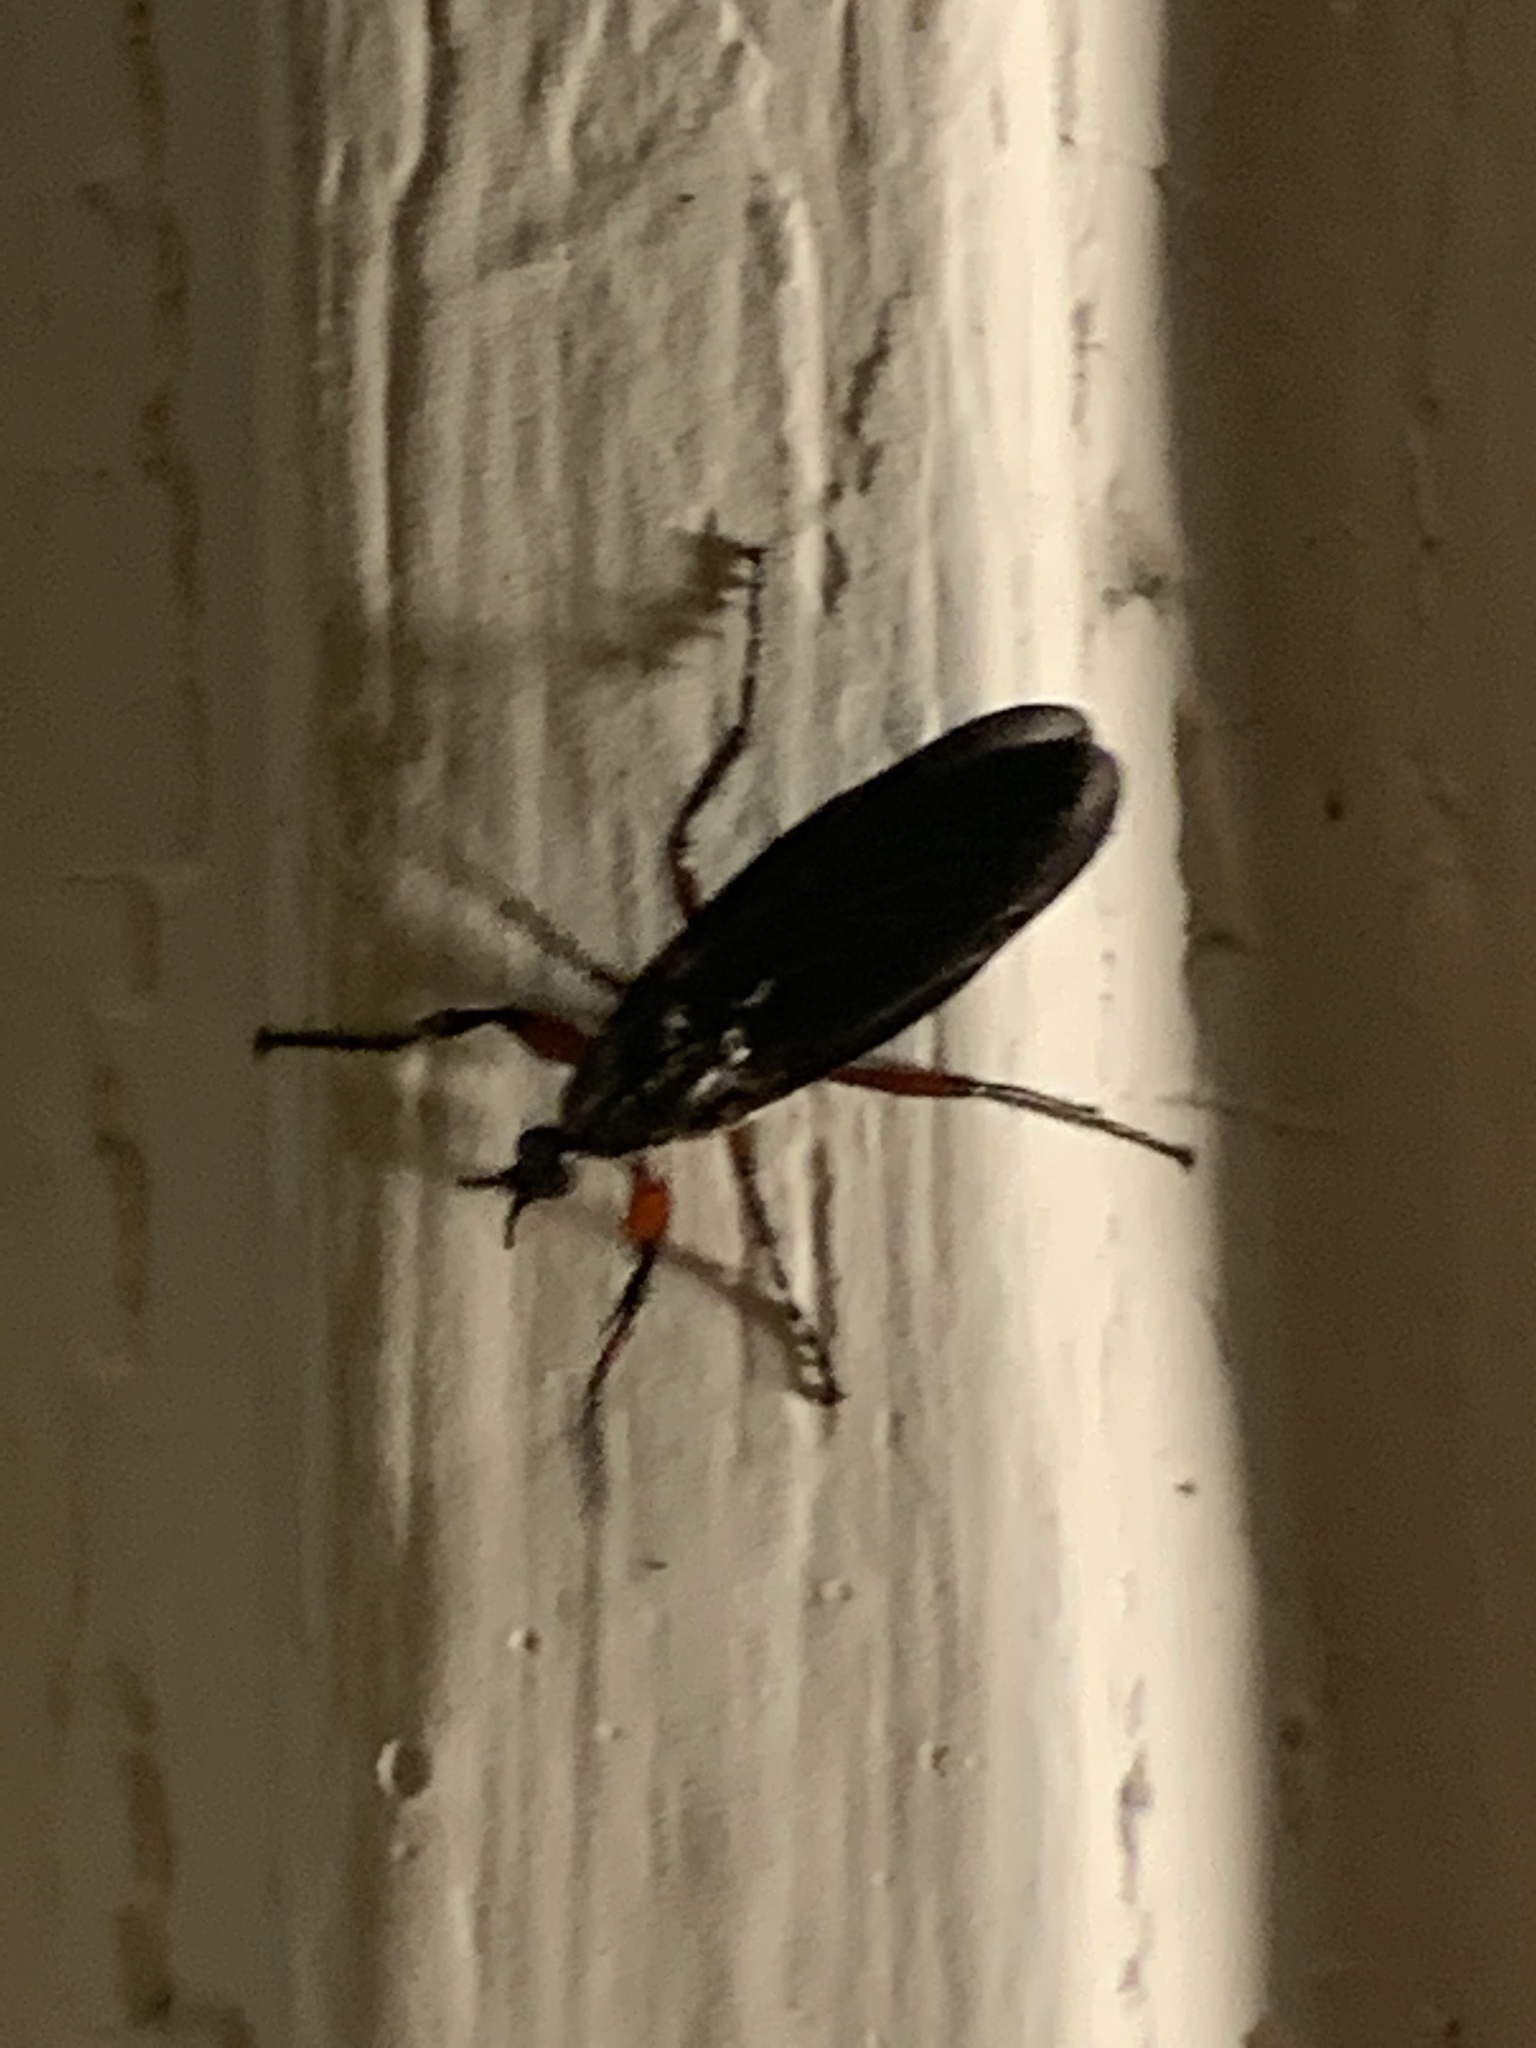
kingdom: Animalia
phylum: Arthropoda
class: Insecta
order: Diptera
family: Bibionidae
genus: Bibio
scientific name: Bibio femoratus
